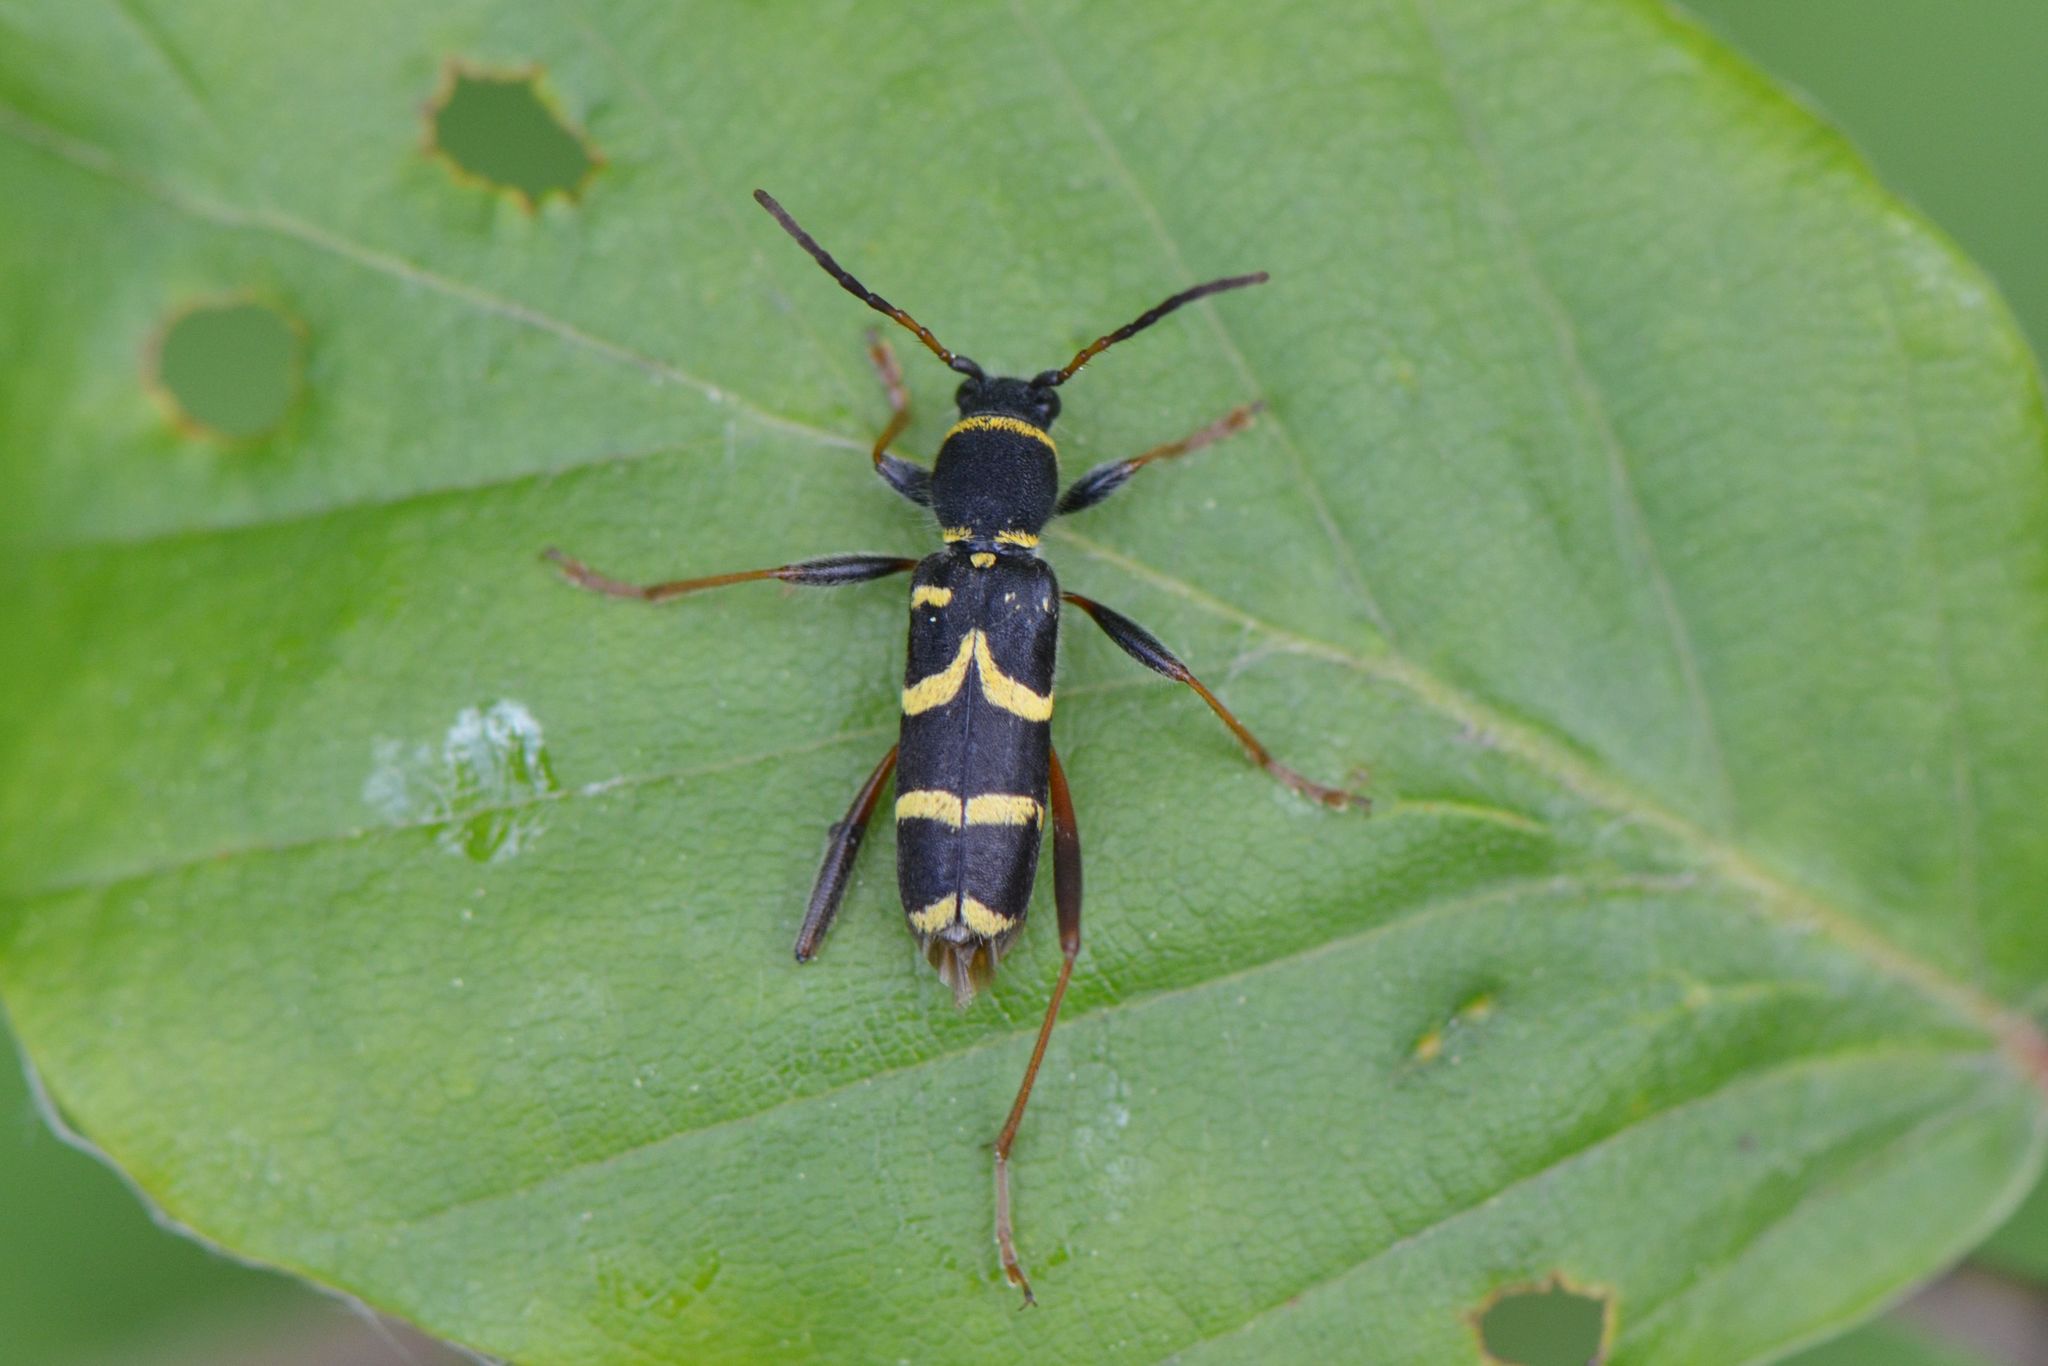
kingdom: Animalia
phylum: Arthropoda
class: Insecta
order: Coleoptera
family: Cerambycidae
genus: Clytus
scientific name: Clytus arietis
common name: Wasp beetle
